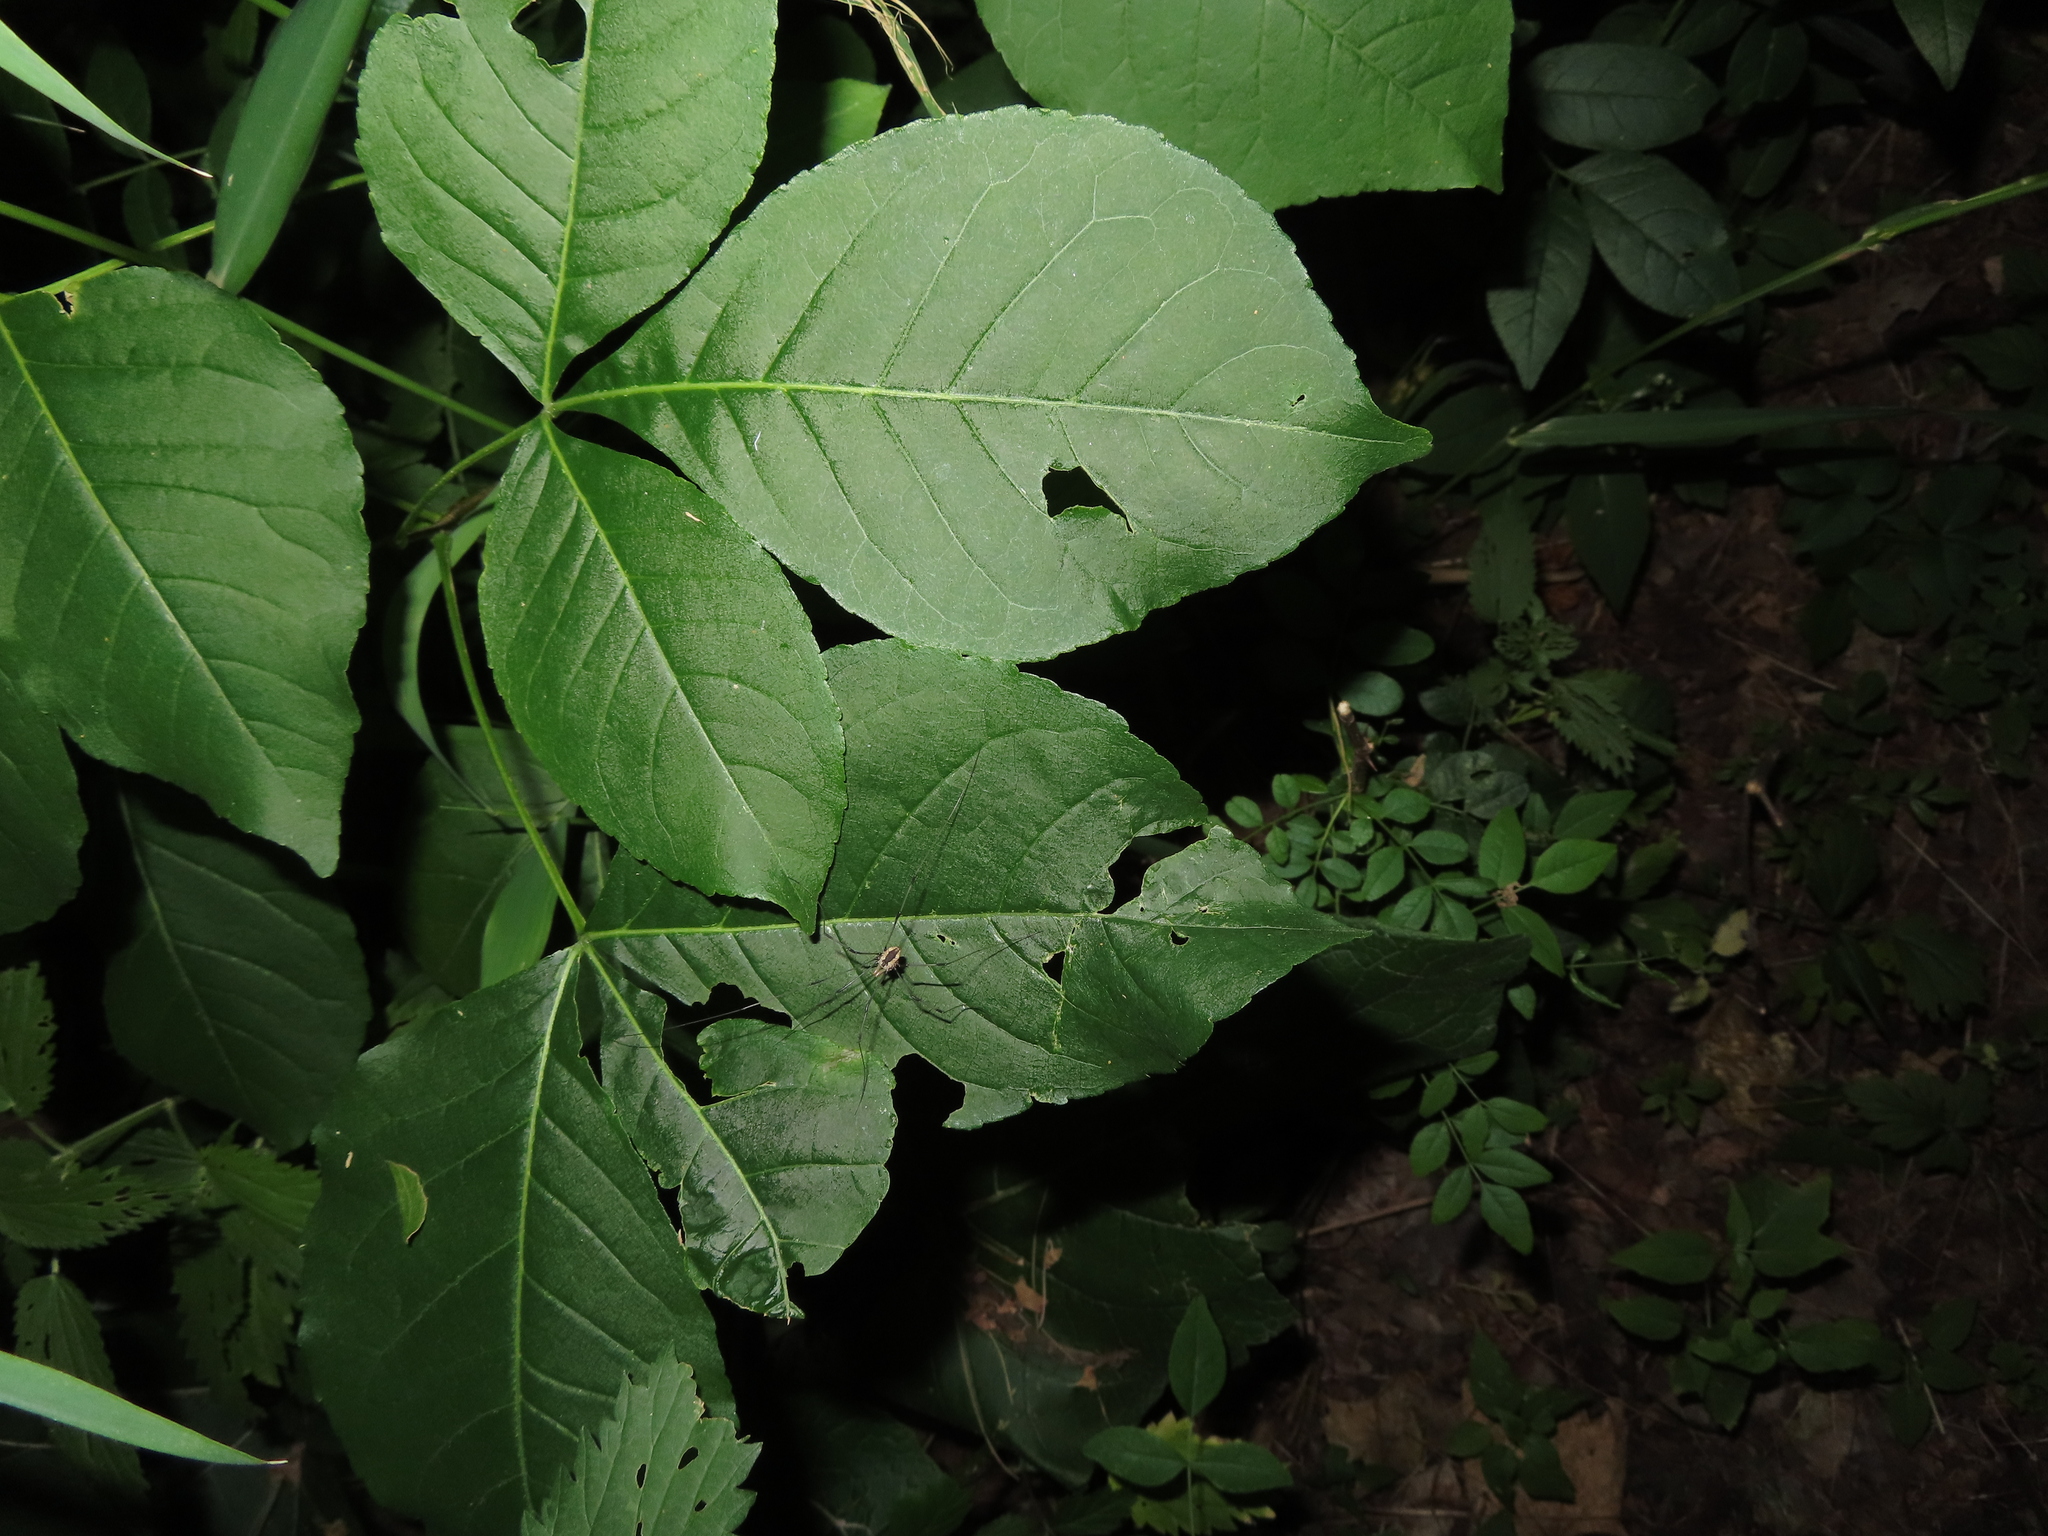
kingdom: Plantae
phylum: Tracheophyta
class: Magnoliopsida
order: Sapindales
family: Rutaceae
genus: Ptelea
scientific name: Ptelea trifoliata
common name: Common hop-tree
